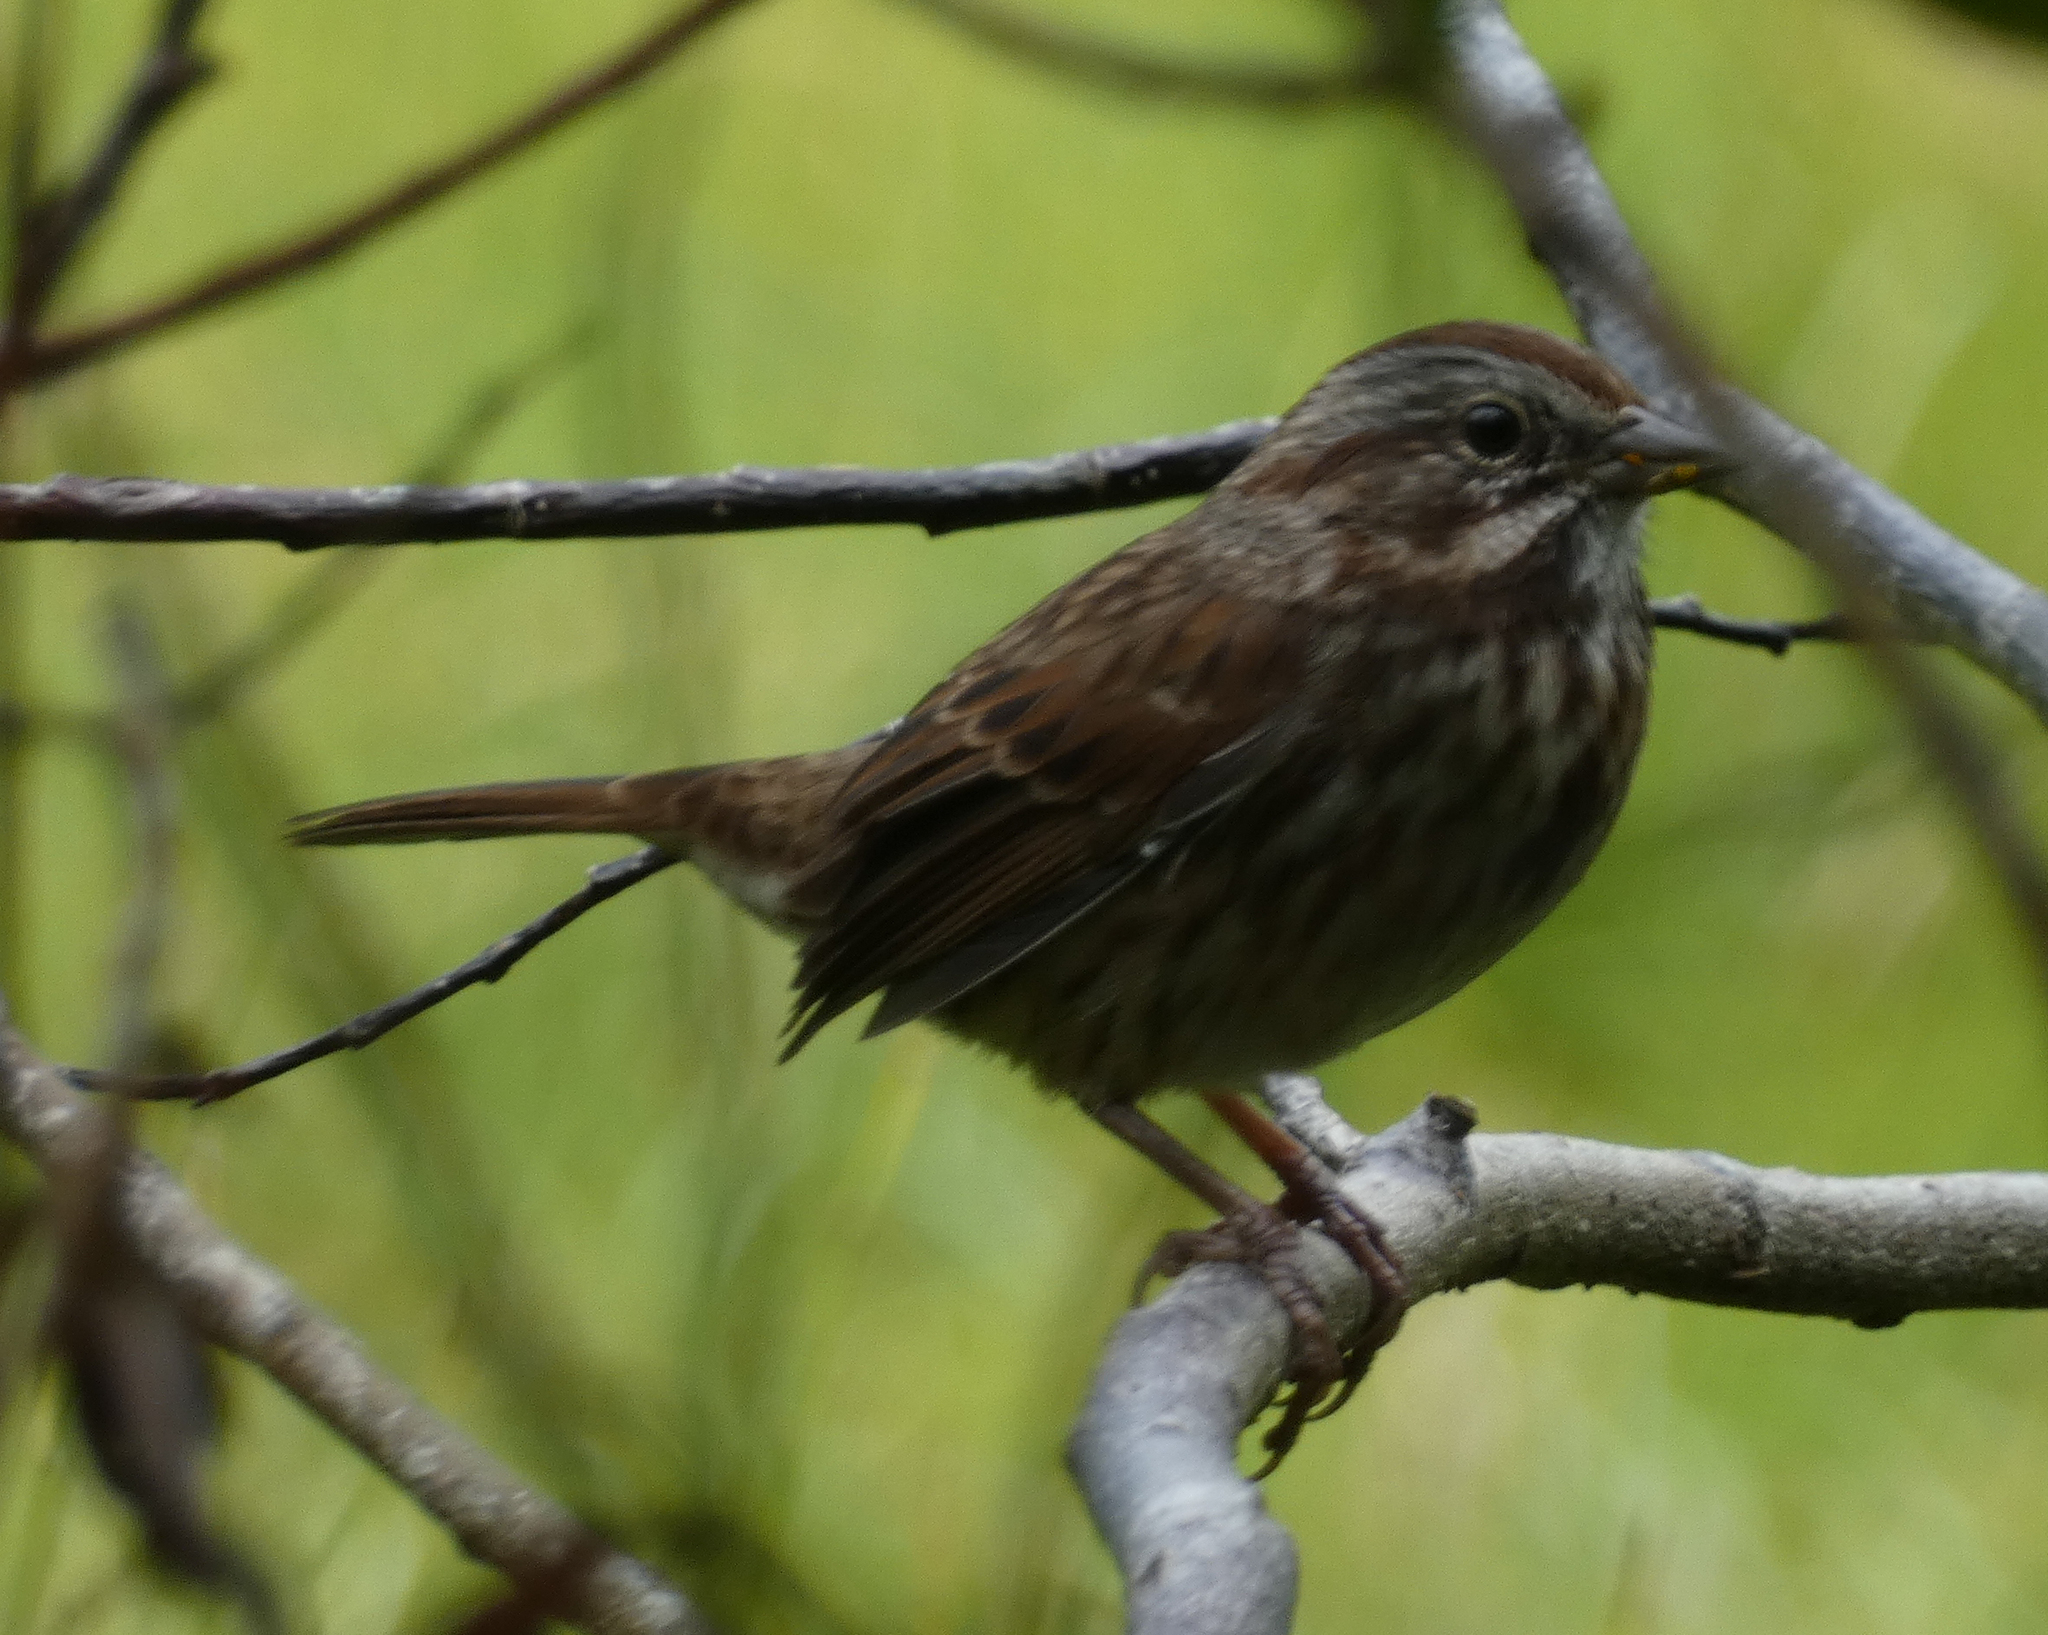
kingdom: Animalia
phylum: Chordata
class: Aves
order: Passeriformes
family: Passerellidae
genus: Melospiza
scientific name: Melospiza melodia
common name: Song sparrow
